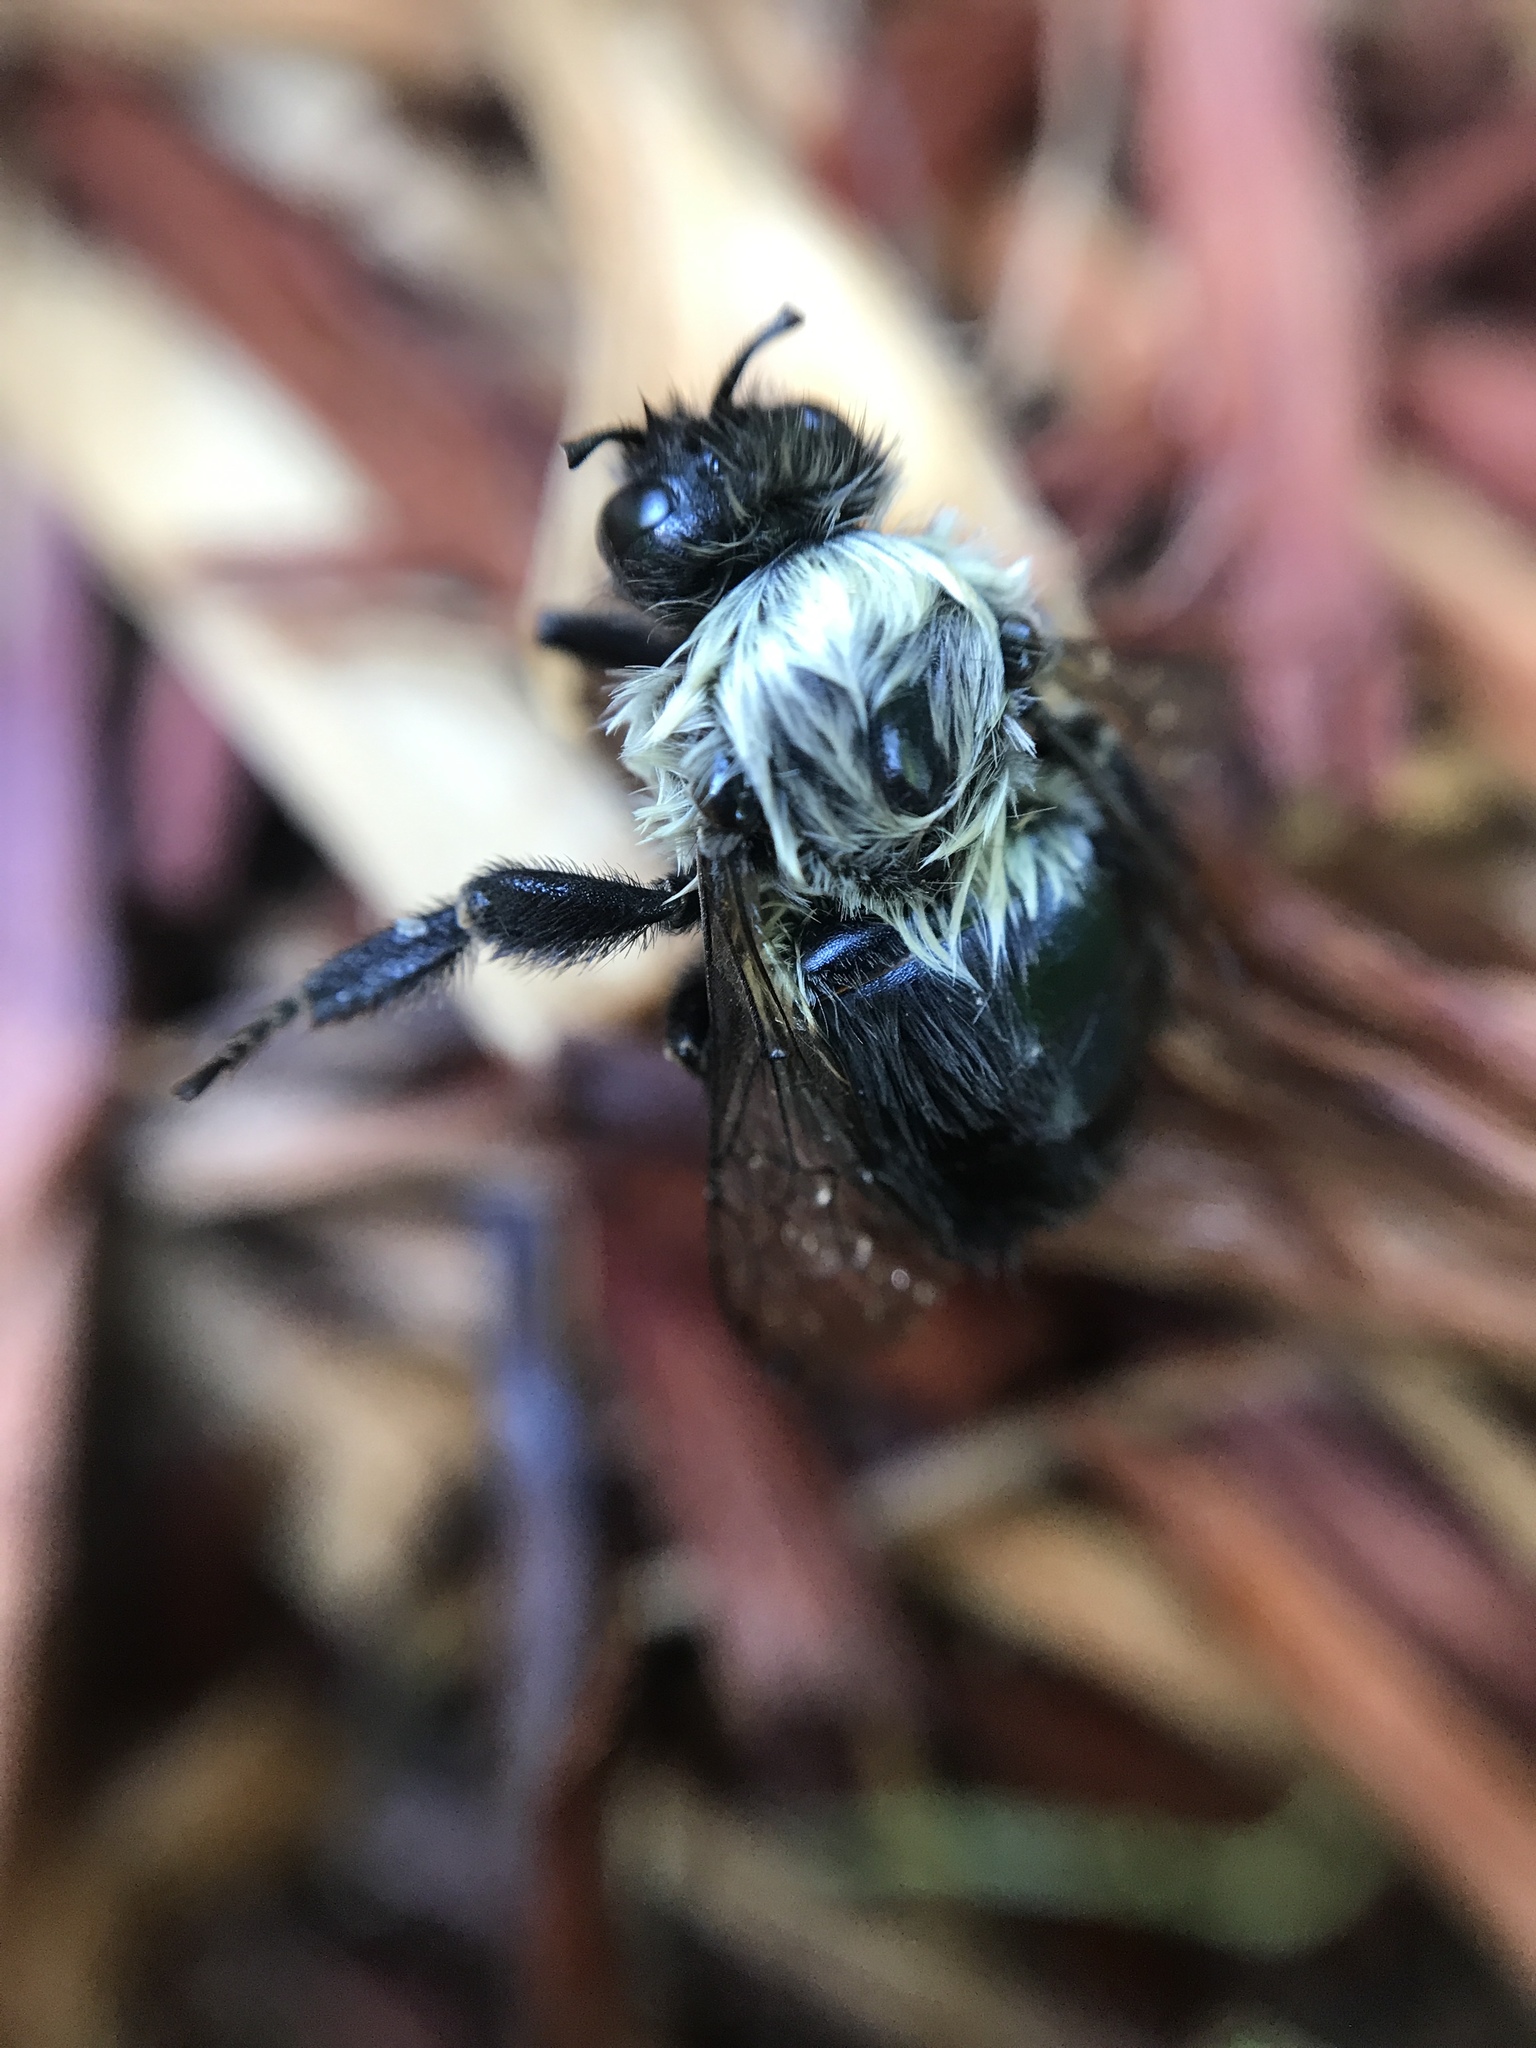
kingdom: Animalia
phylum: Arthropoda
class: Insecta
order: Hymenoptera
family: Apidae
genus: Bombus
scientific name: Bombus impatiens
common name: Common eastern bumble bee
